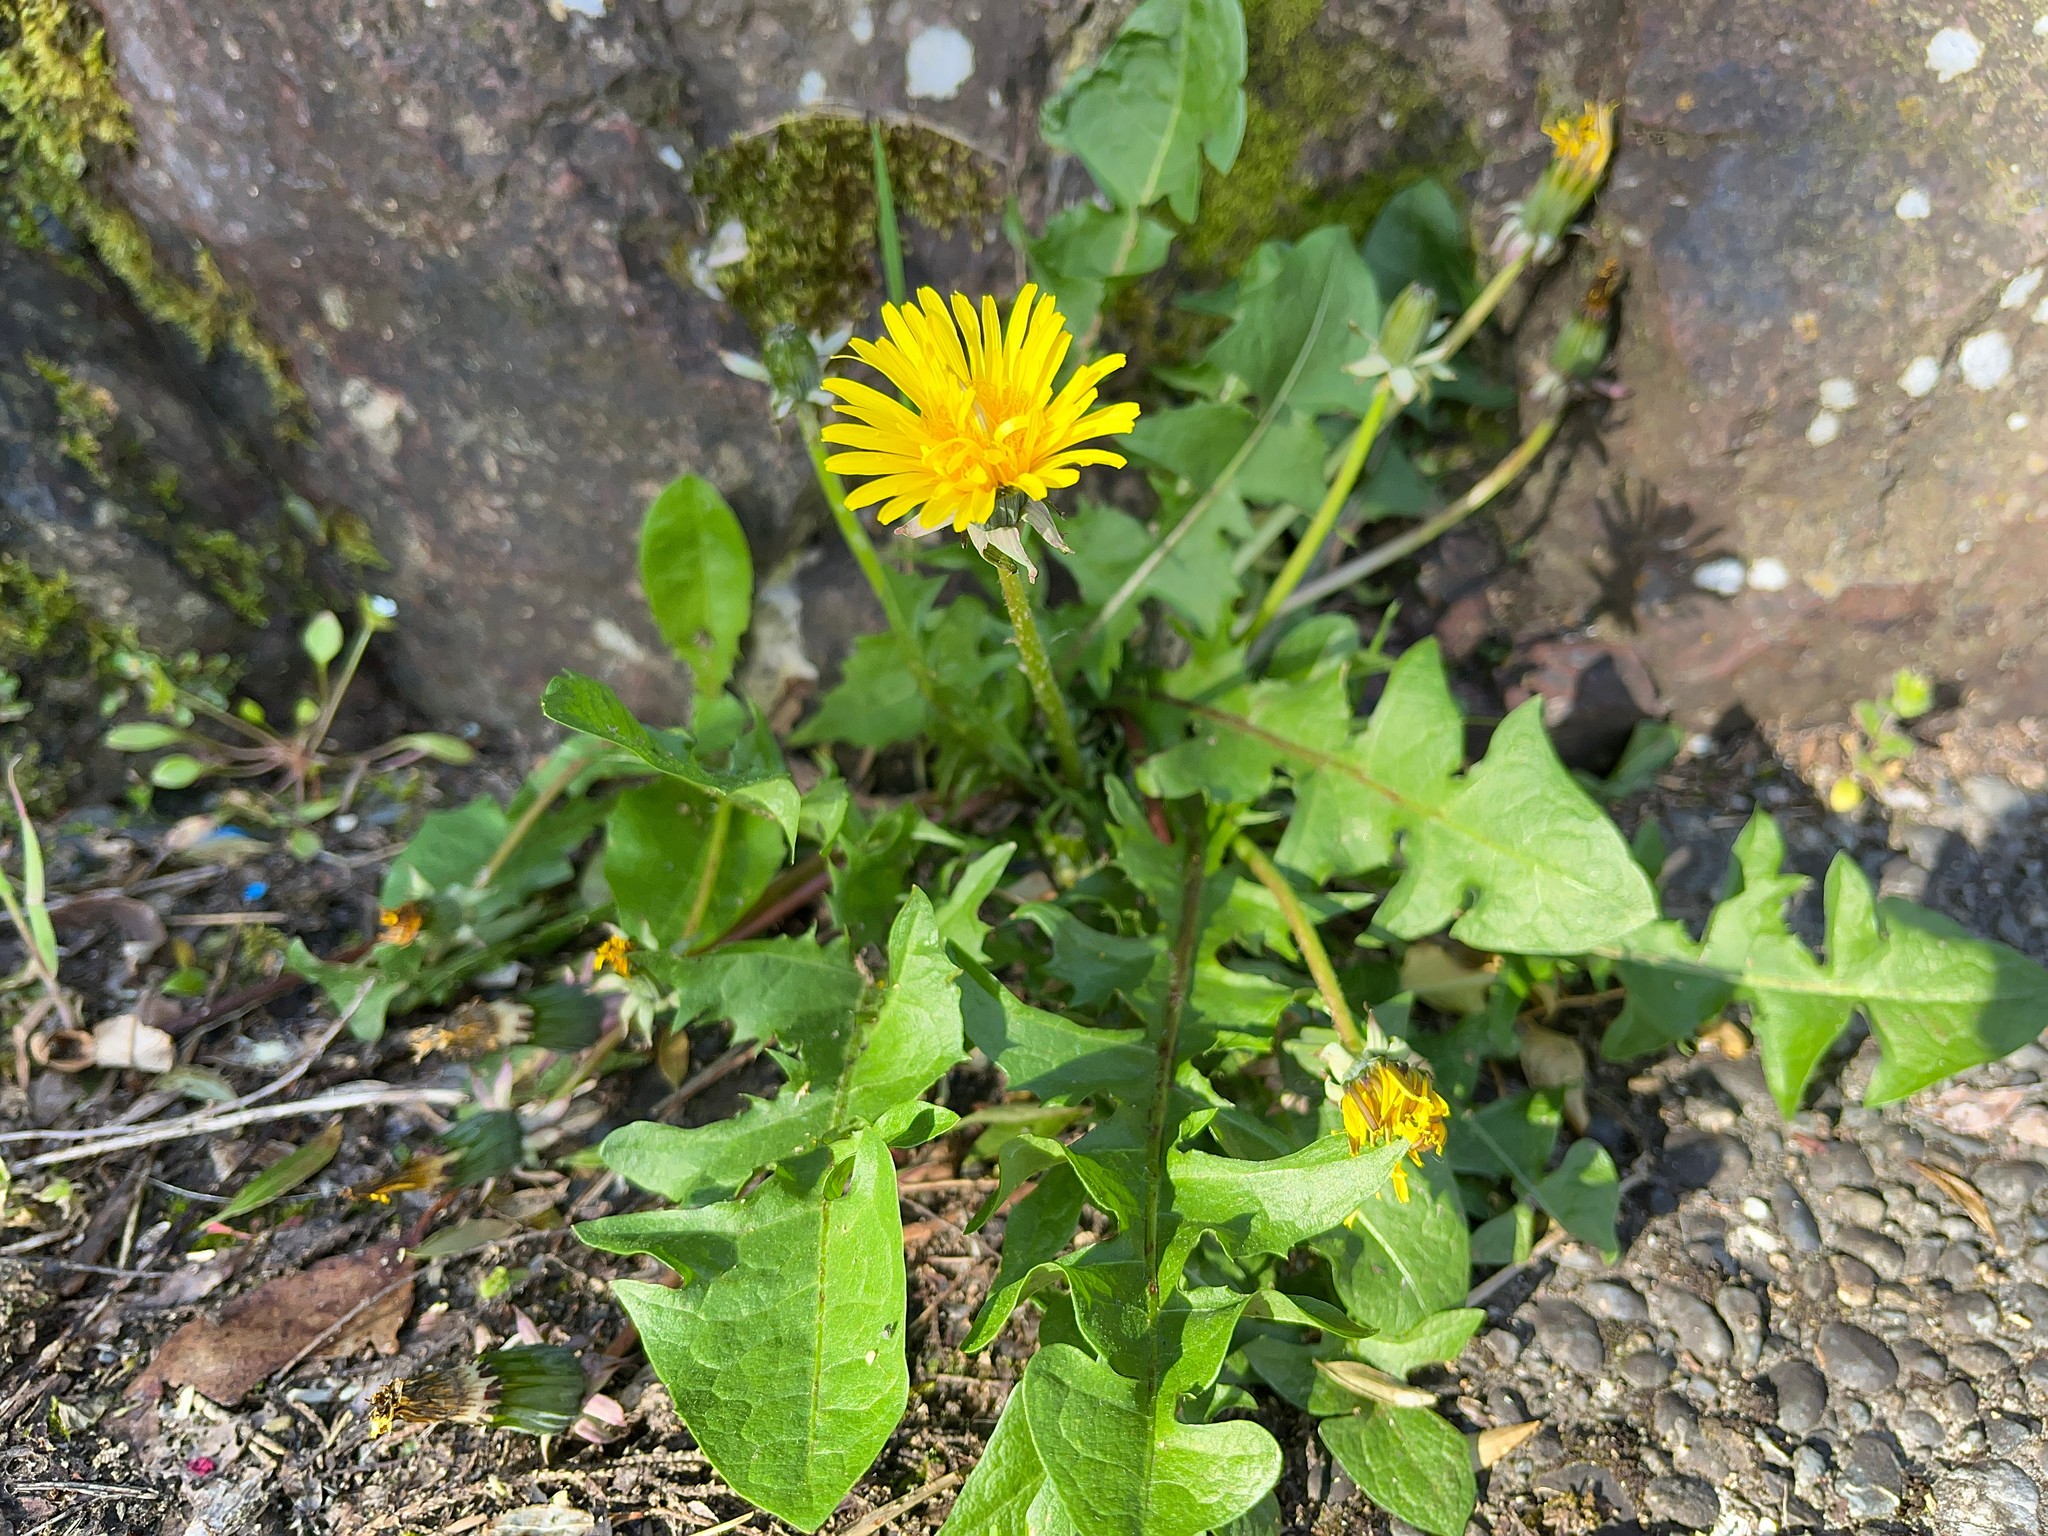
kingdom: Plantae
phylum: Tracheophyta
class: Magnoliopsida
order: Asterales
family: Asteraceae
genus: Taraxacum
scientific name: Taraxacum officinale
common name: Common dandelion
